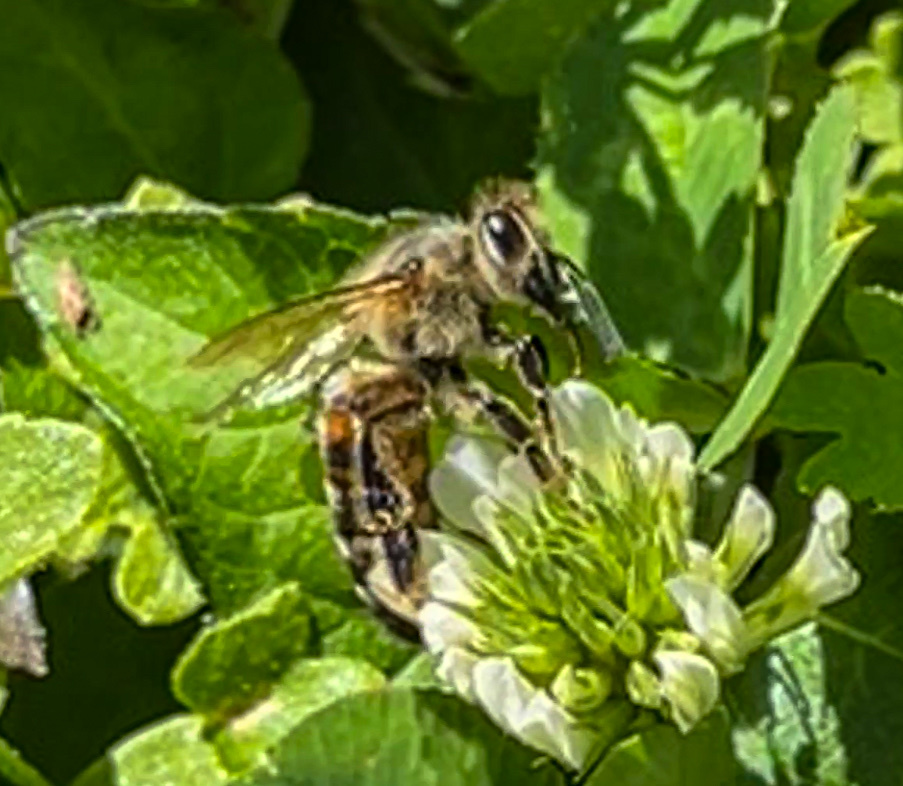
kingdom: Animalia
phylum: Arthropoda
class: Insecta
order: Hymenoptera
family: Apidae
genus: Apis
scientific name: Apis mellifera
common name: Honey bee
